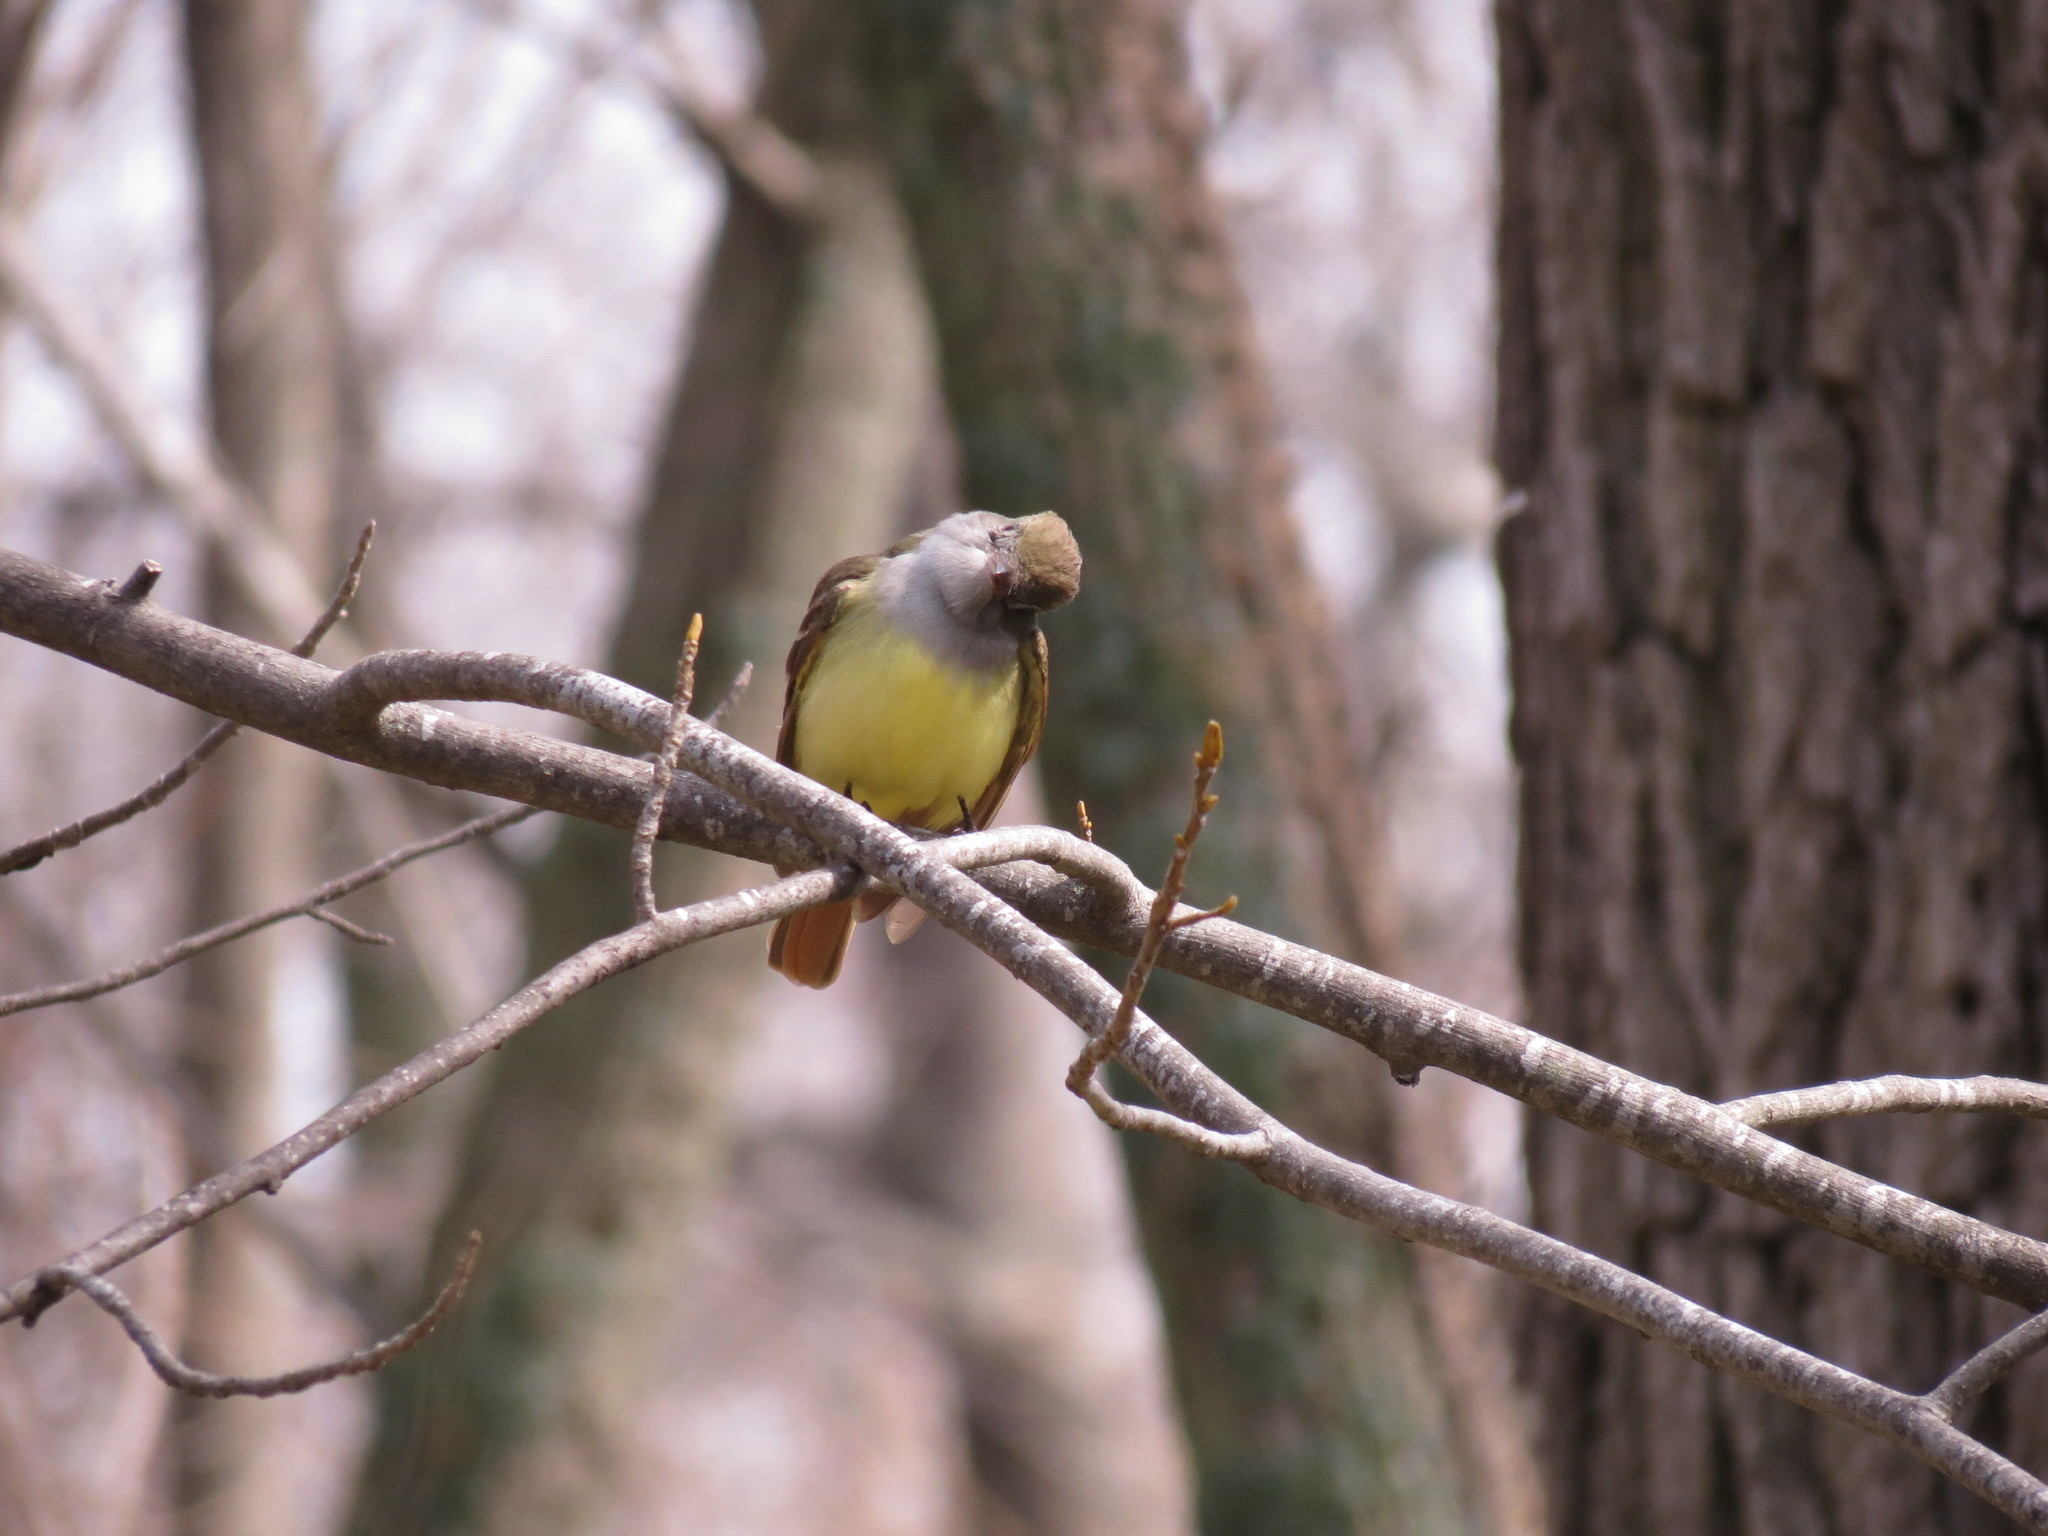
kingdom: Animalia
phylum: Chordata
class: Aves
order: Passeriformes
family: Tyrannidae
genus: Myiarchus
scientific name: Myiarchus crinitus
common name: Great crested flycatcher
